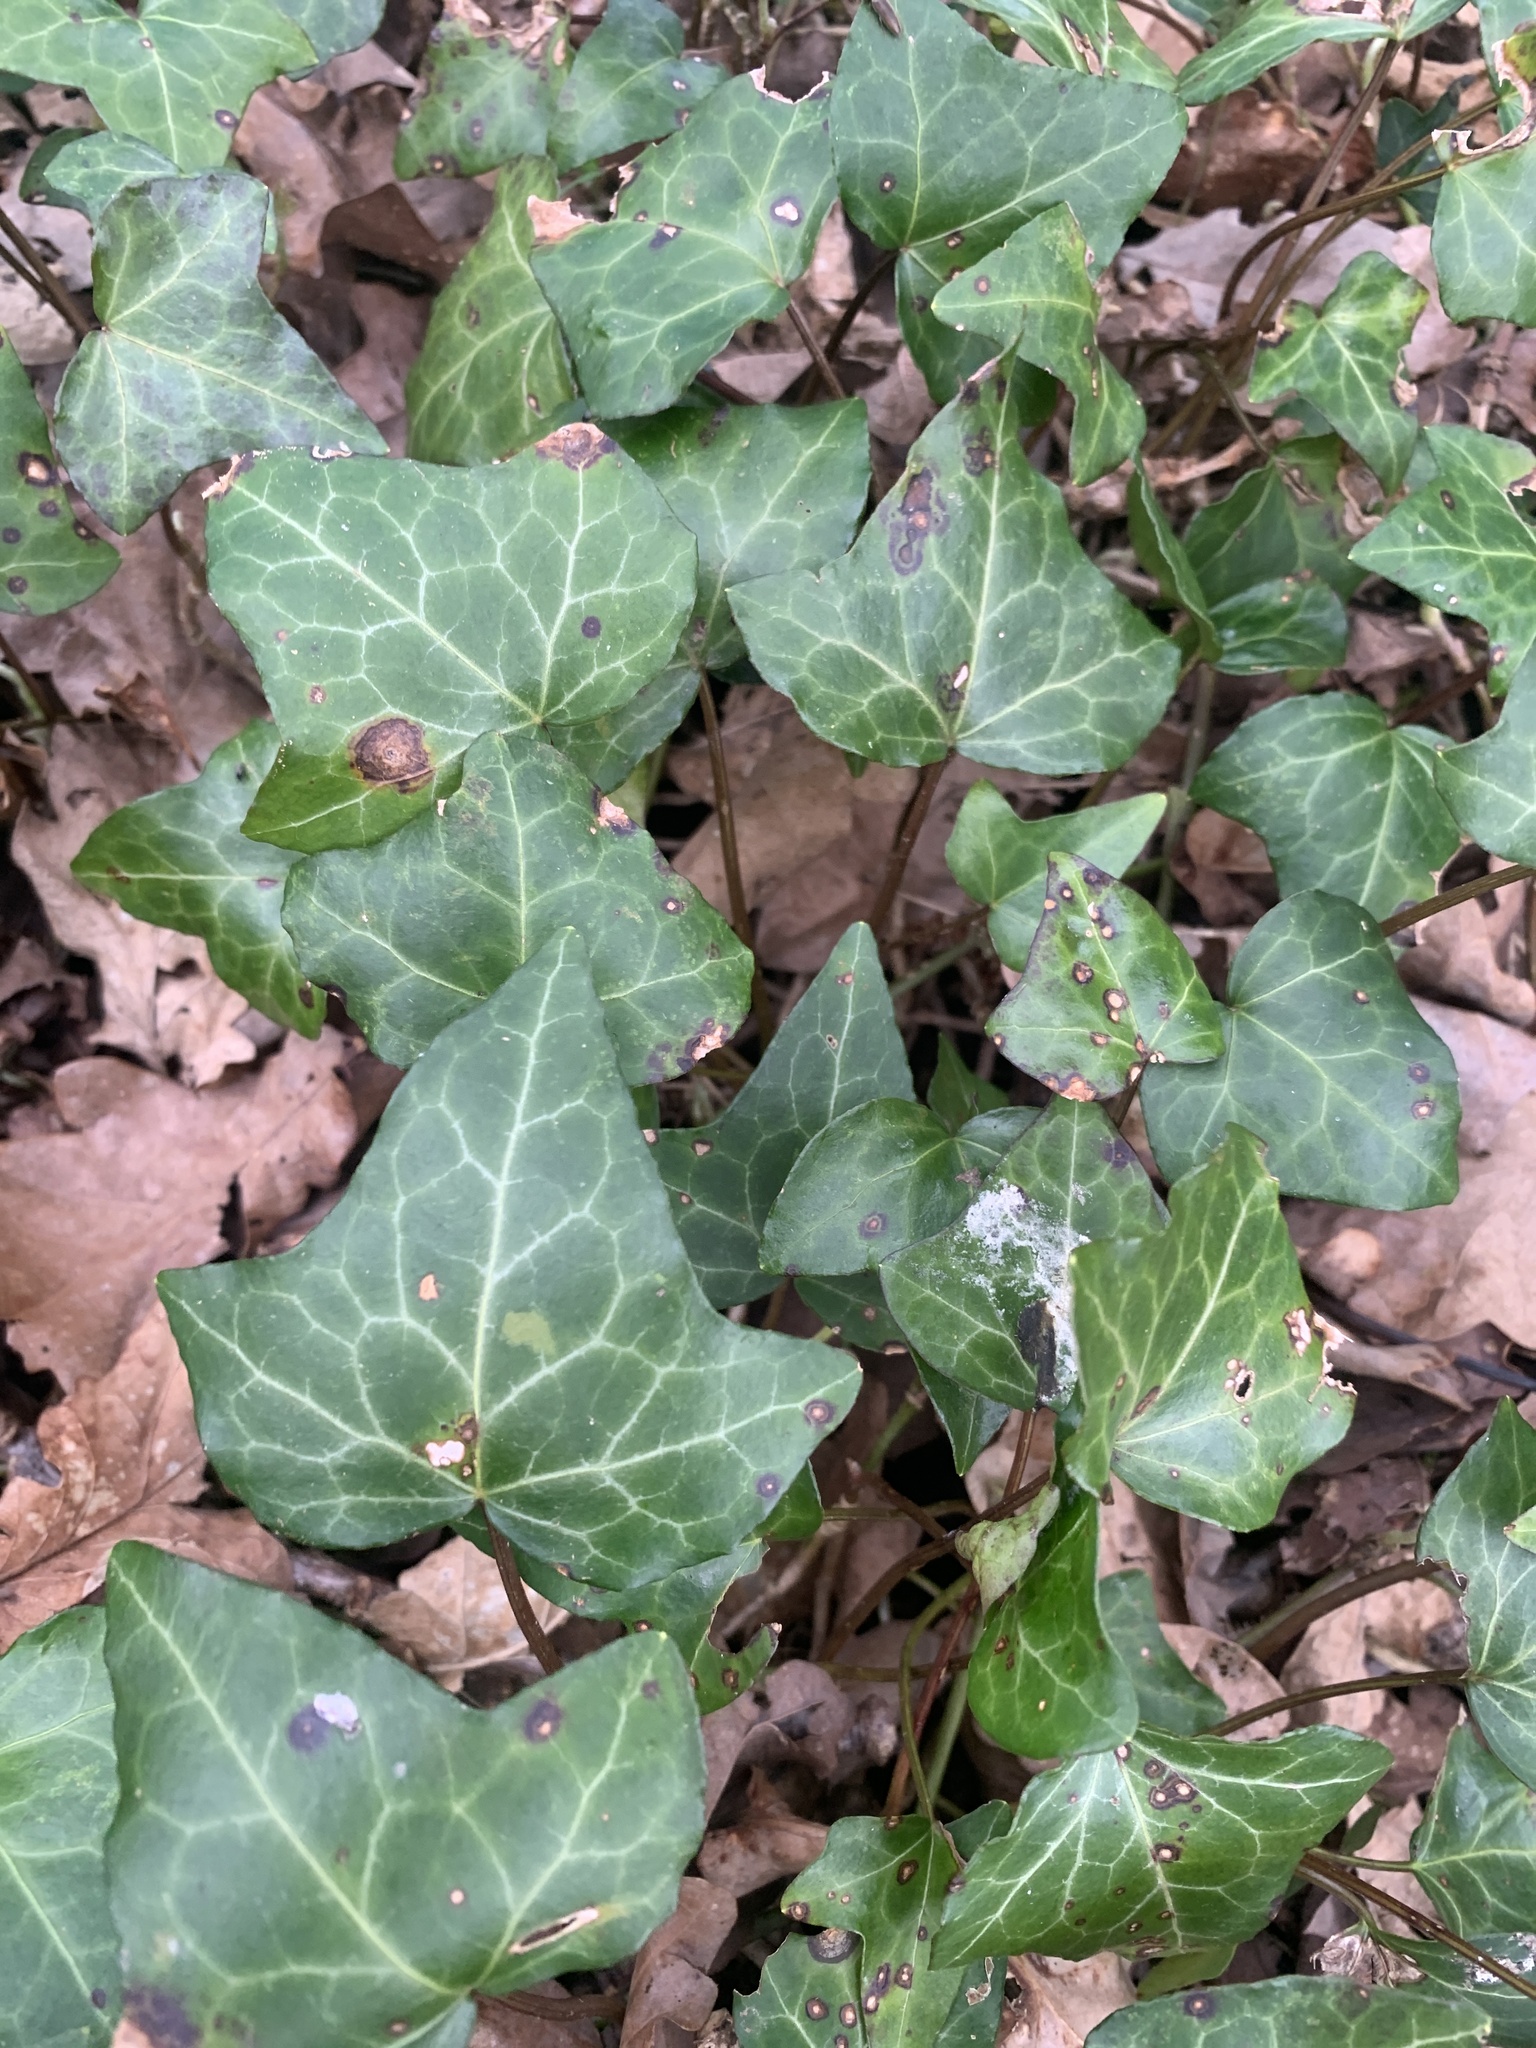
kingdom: Plantae
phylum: Tracheophyta
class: Magnoliopsida
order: Apiales
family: Araliaceae
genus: Hedera
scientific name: Hedera helix
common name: Ivy
